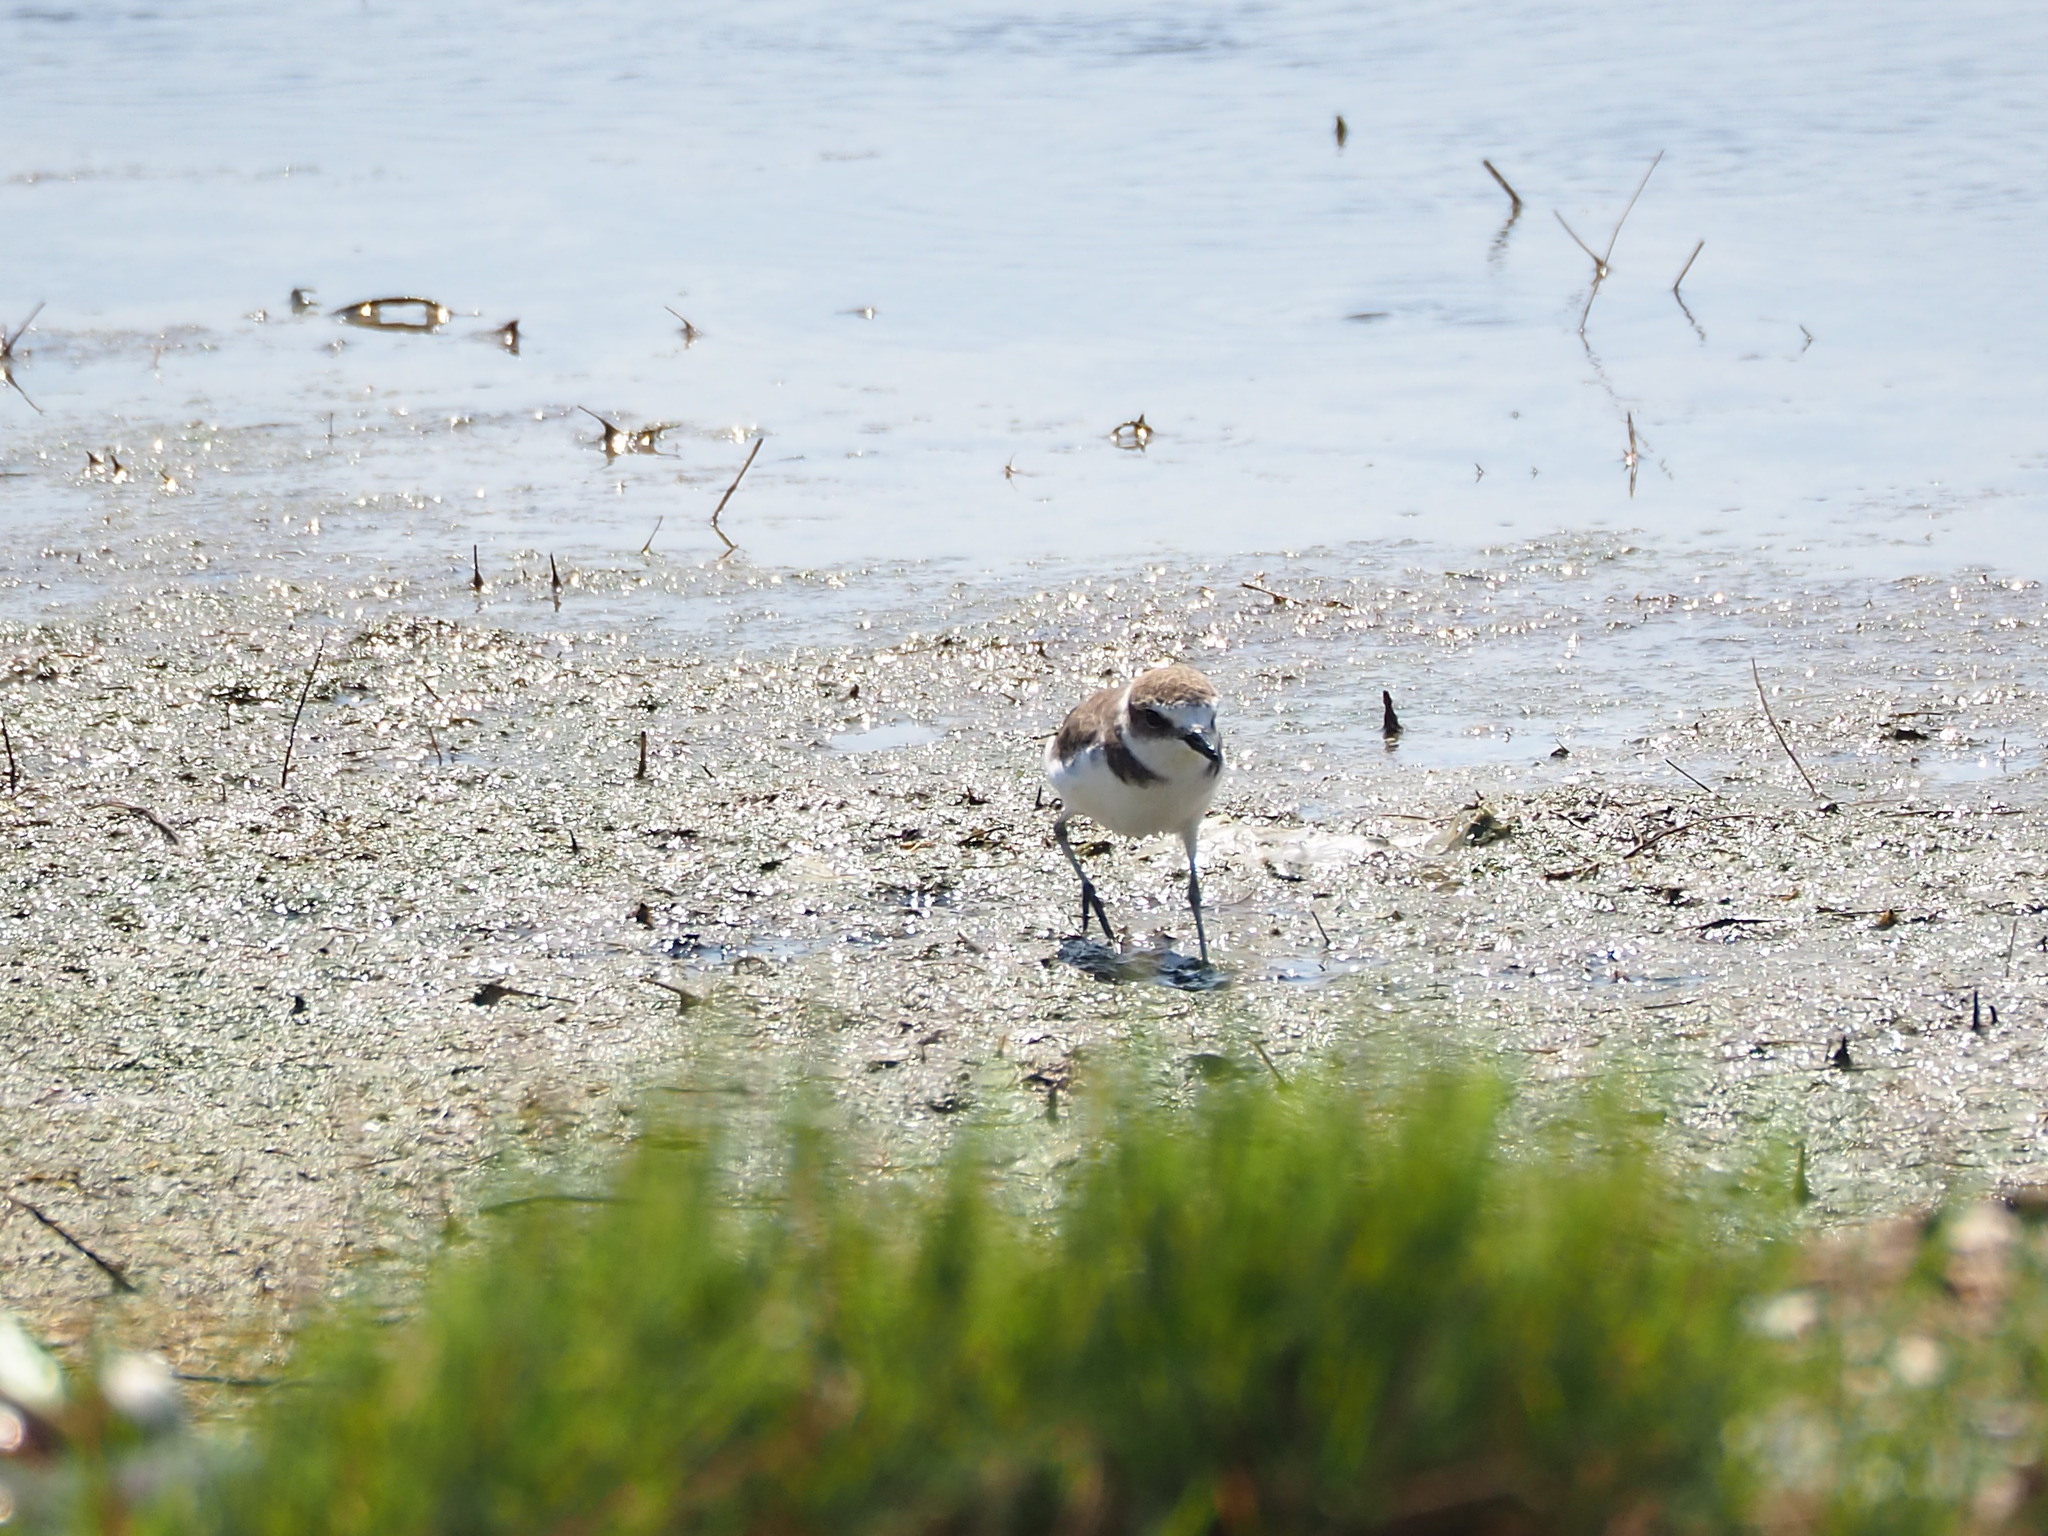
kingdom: Animalia
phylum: Chordata
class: Aves
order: Charadriiformes
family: Charadriidae
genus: Charadrius
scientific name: Charadrius alexandrinus
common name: Kentish plover
